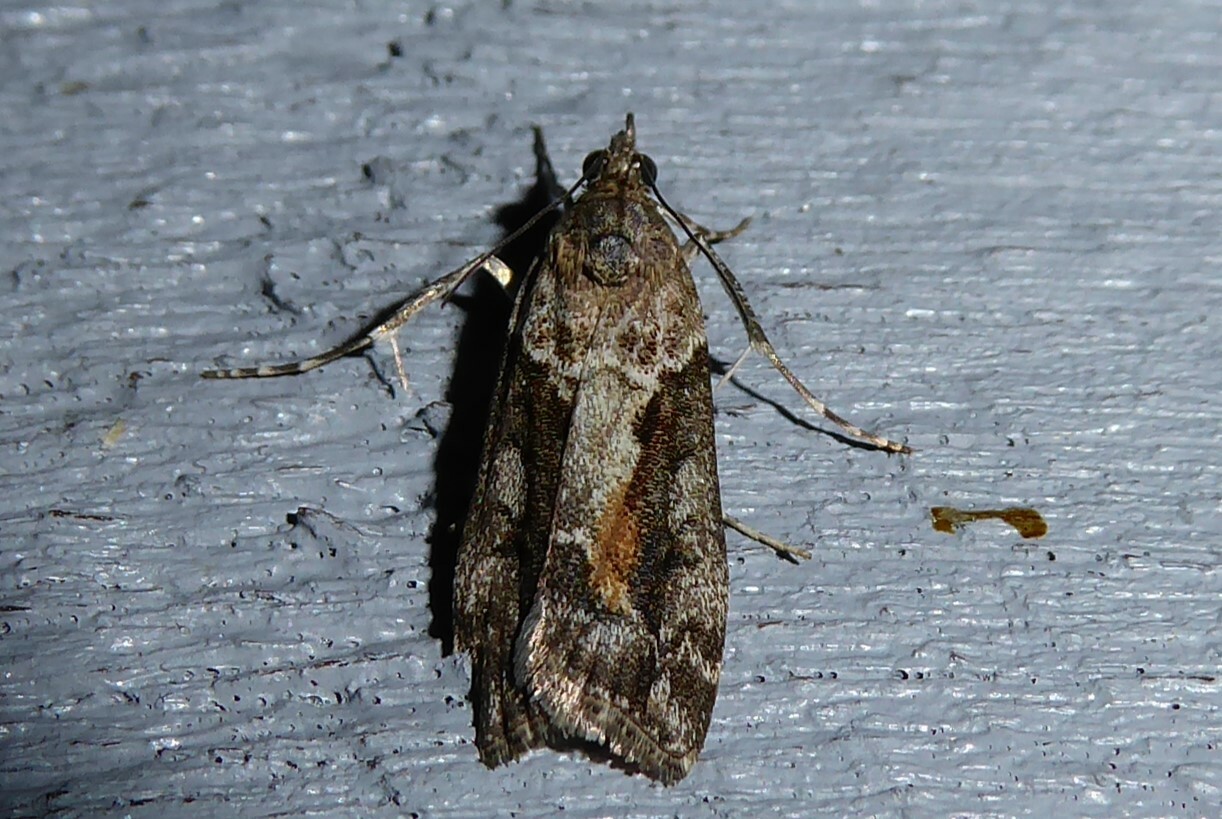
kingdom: Animalia
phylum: Arthropoda
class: Insecta
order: Lepidoptera
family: Crambidae
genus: Eudonia
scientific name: Eudonia submarginalis
